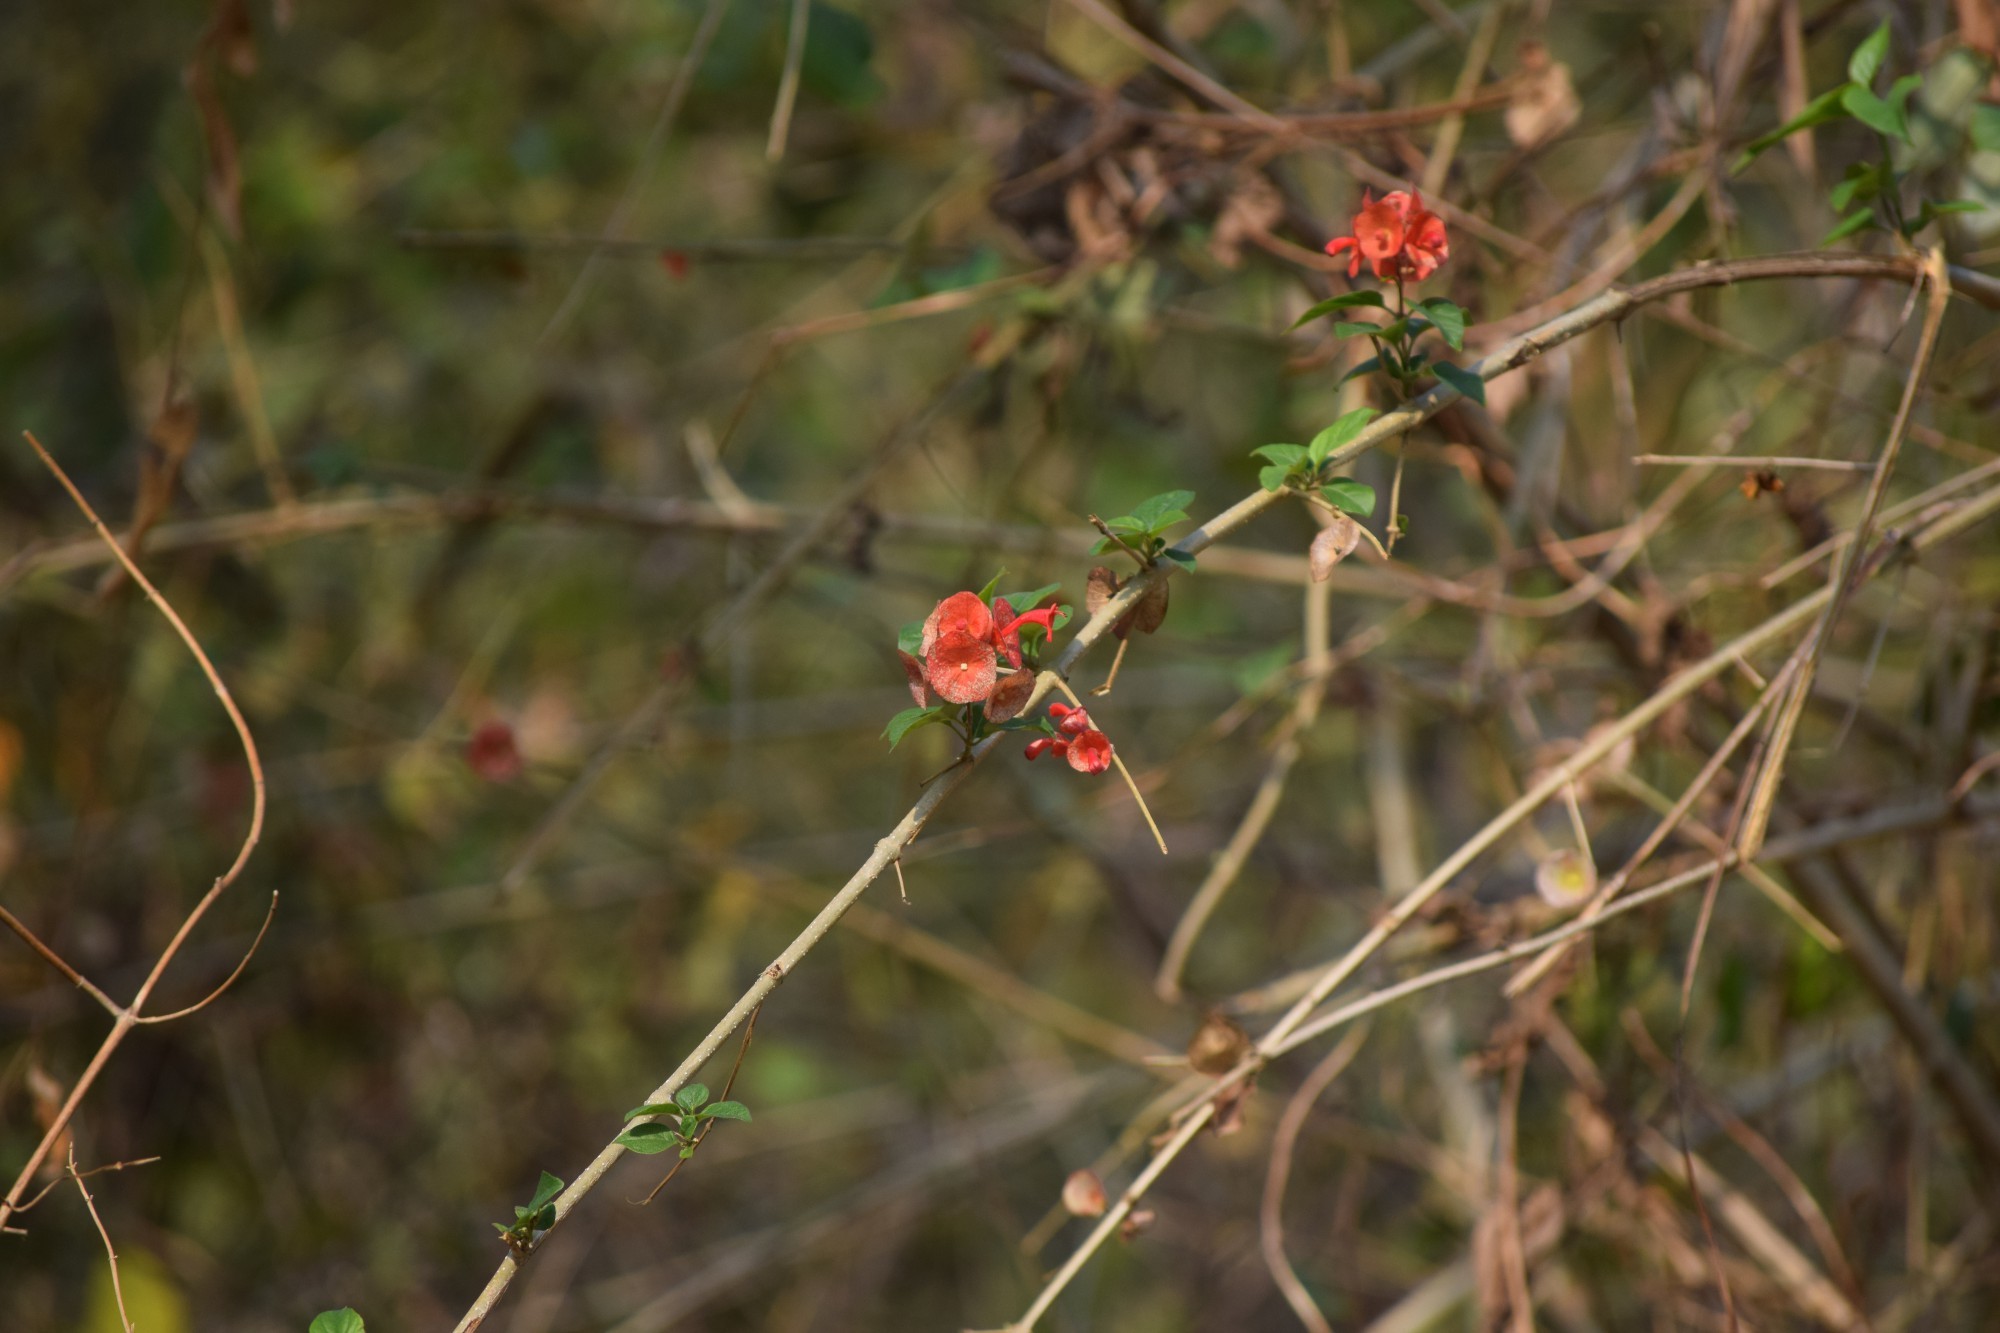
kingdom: Plantae
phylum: Tracheophyta
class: Magnoliopsida
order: Lamiales
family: Lamiaceae
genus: Holmskioldia
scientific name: Holmskioldia sanguinea
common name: Chinese hatplant
